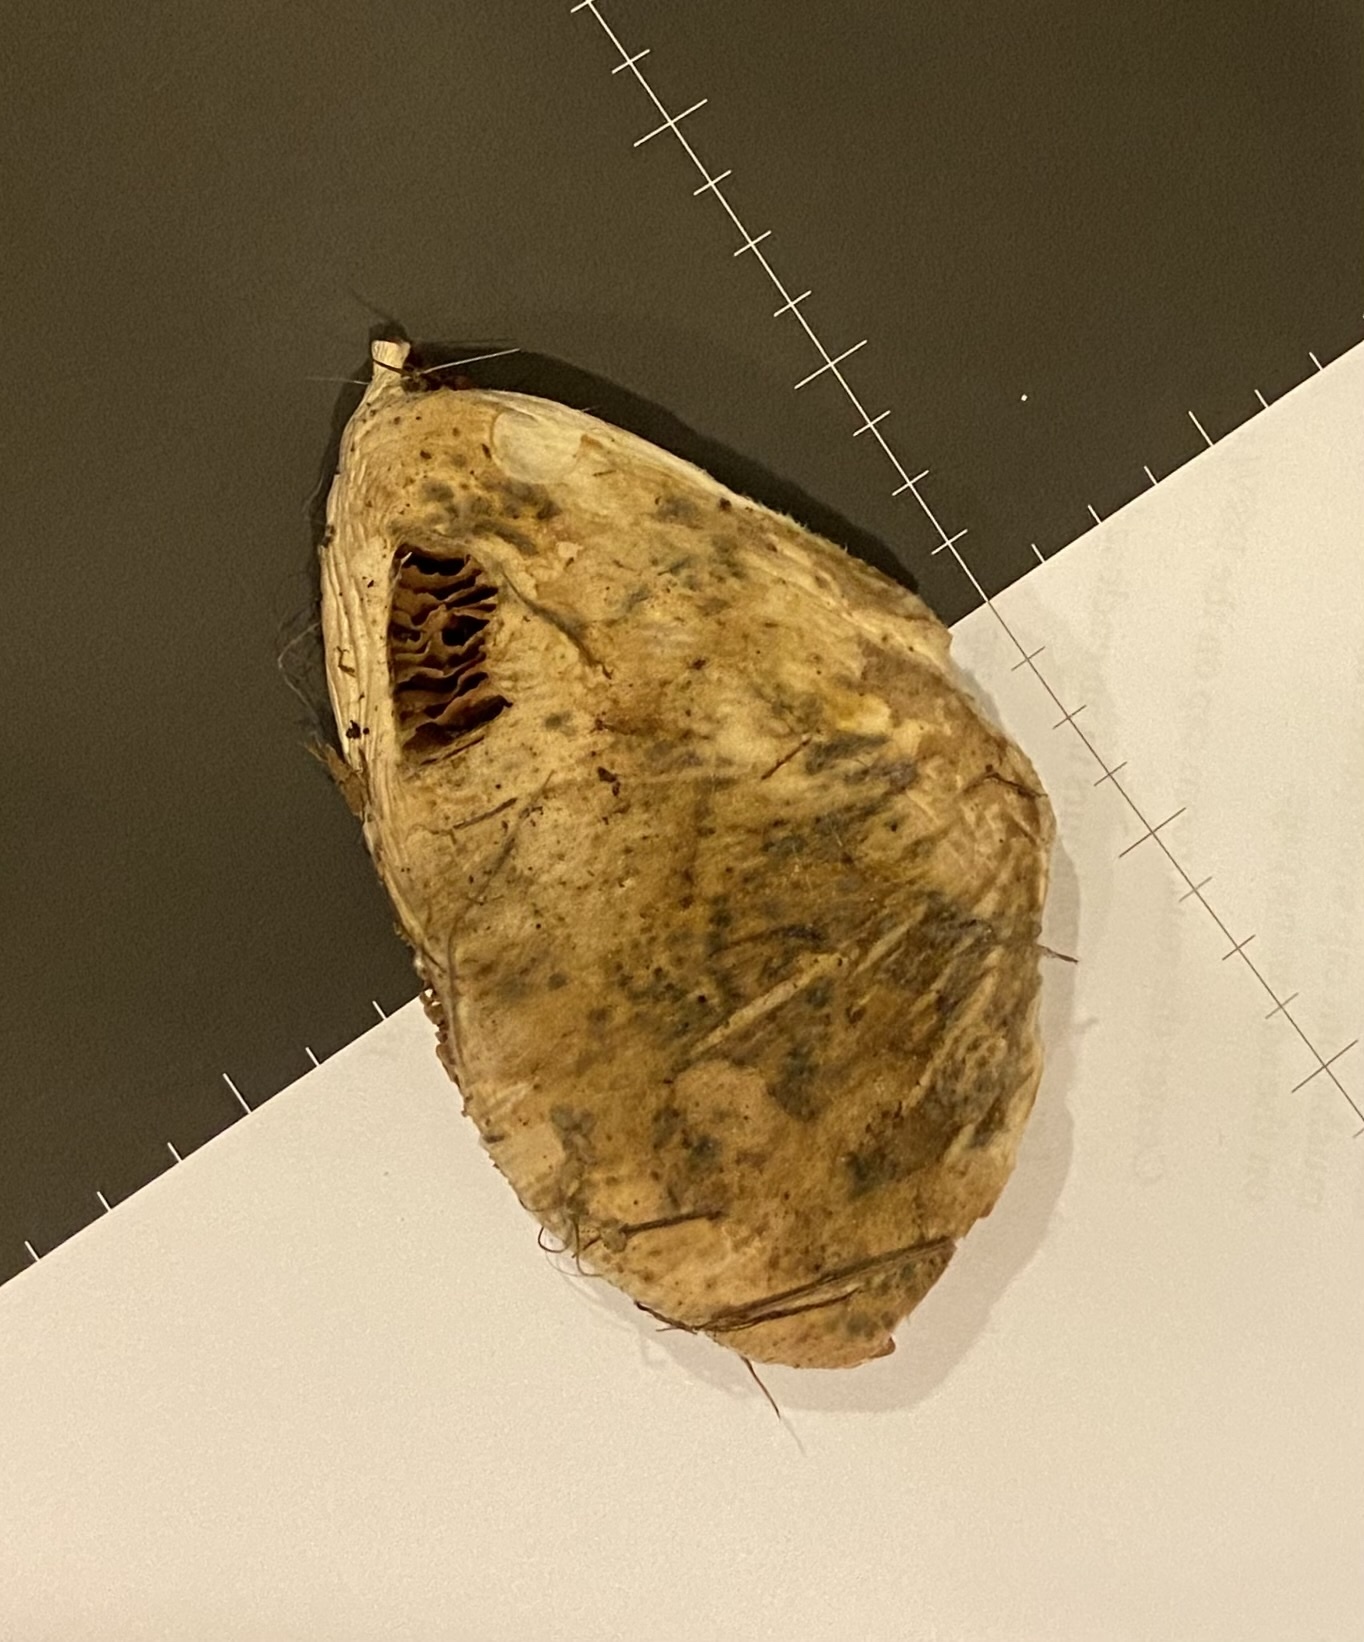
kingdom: Fungi
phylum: Basidiomycota
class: Agaricomycetes
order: Agaricales
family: Pluteaceae
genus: Volvopluteus
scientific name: Volvopluteus gloiocephalus
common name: Stubble rosegill
